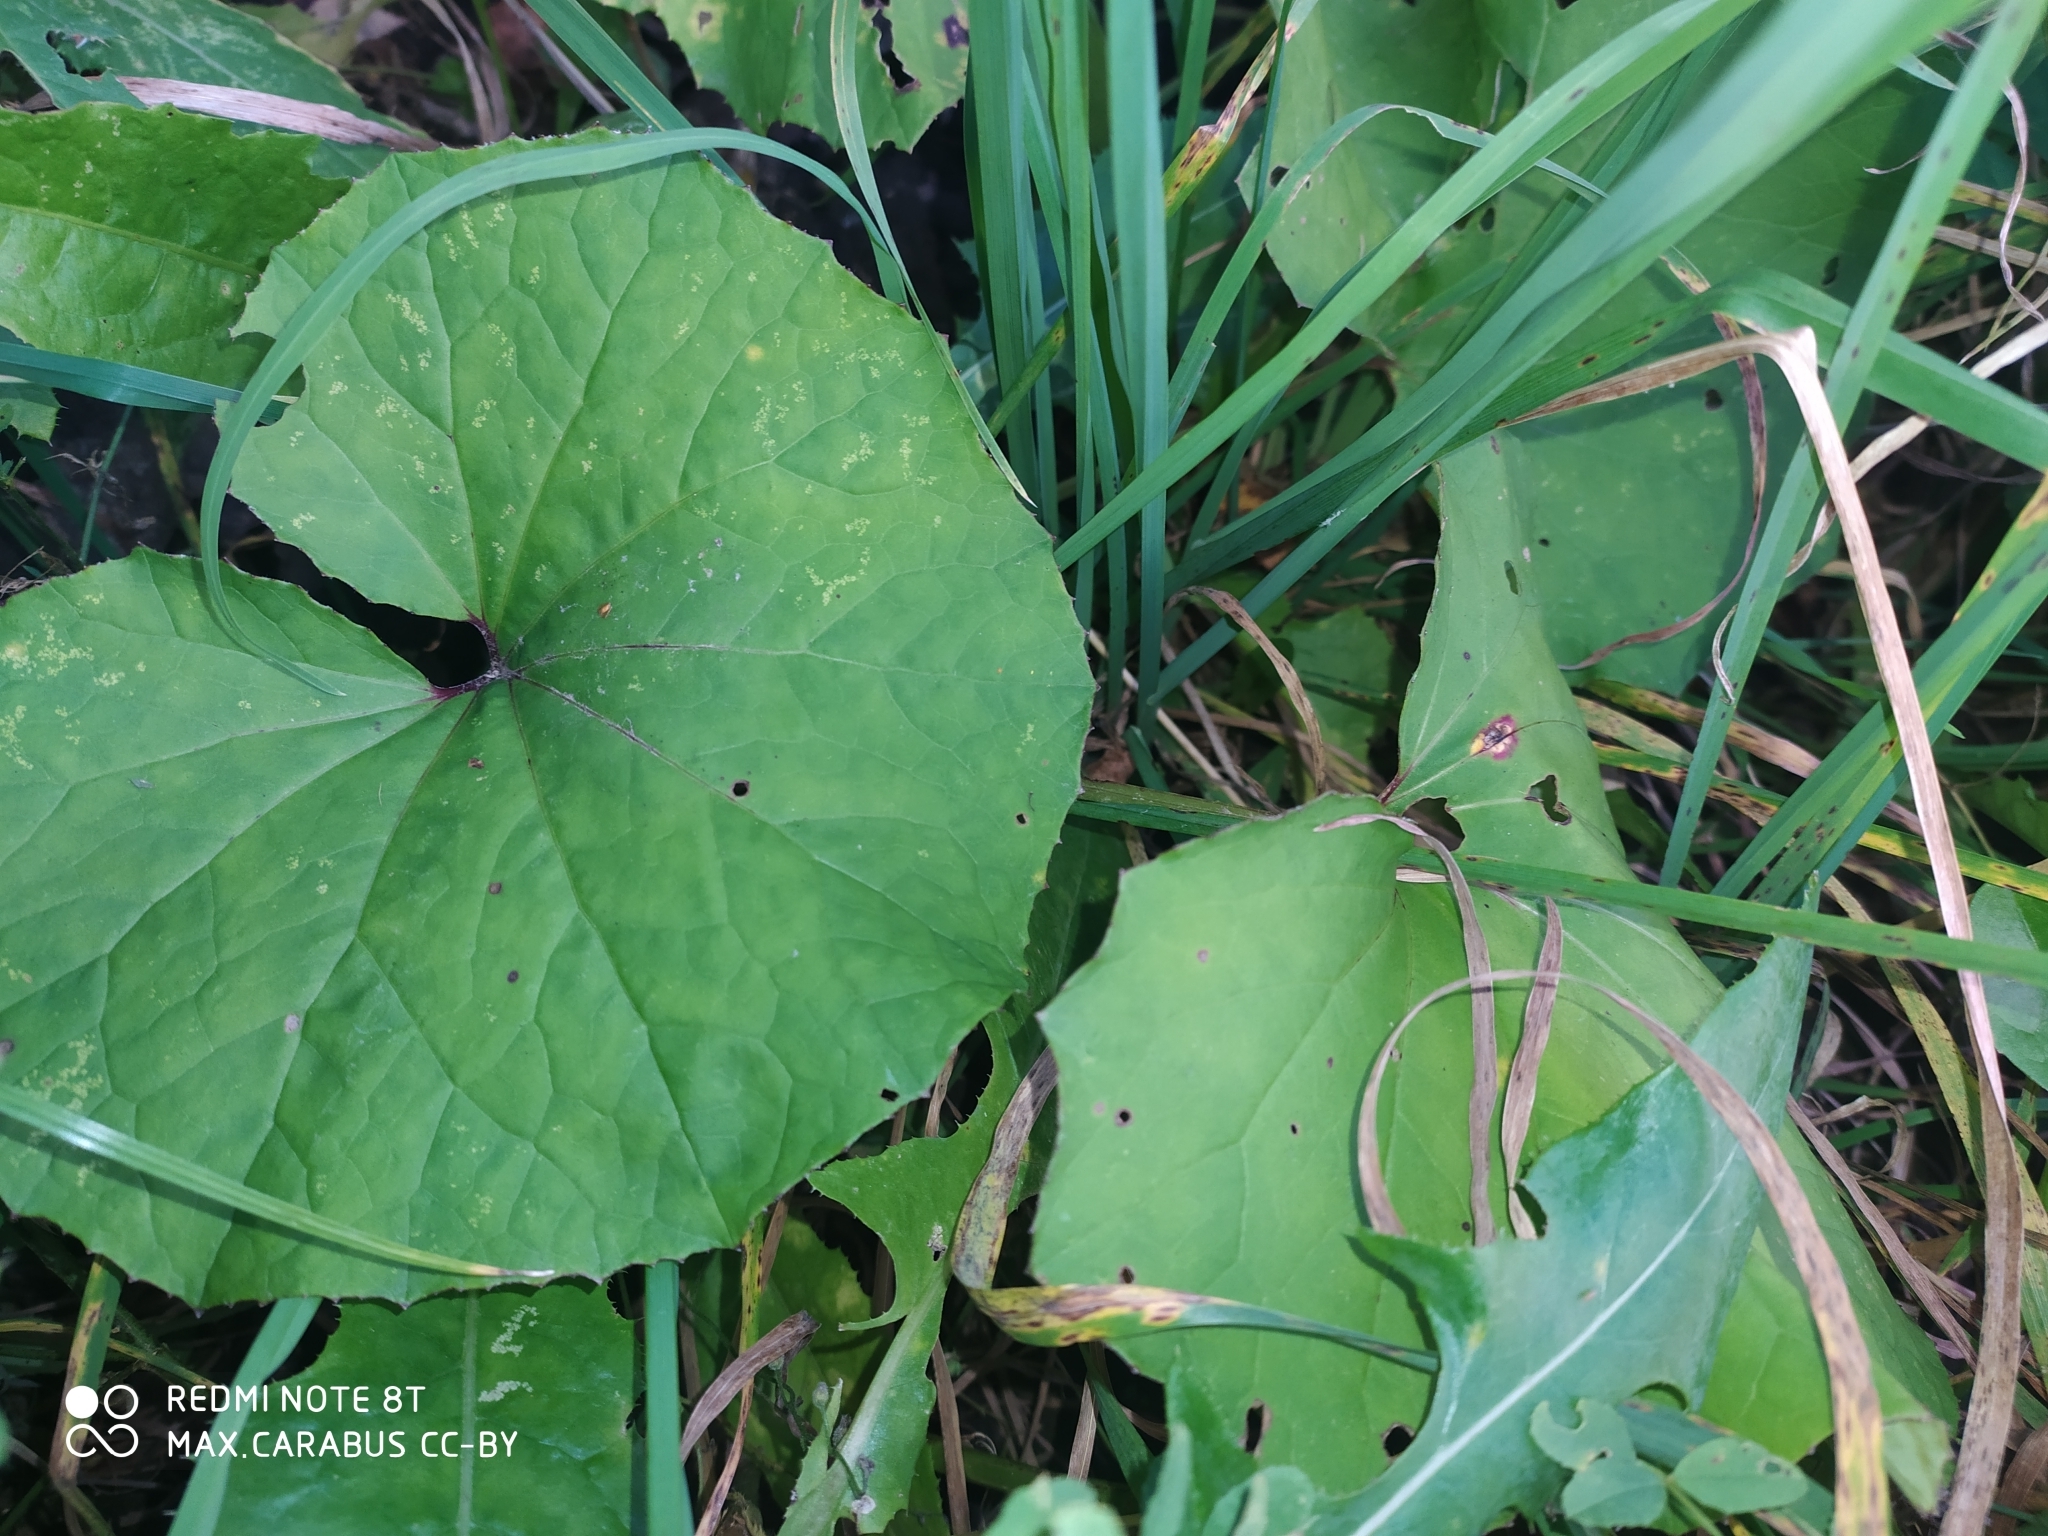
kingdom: Plantae
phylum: Tracheophyta
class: Magnoliopsida
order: Asterales
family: Asteraceae
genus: Tussilago
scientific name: Tussilago farfara
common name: Coltsfoot
